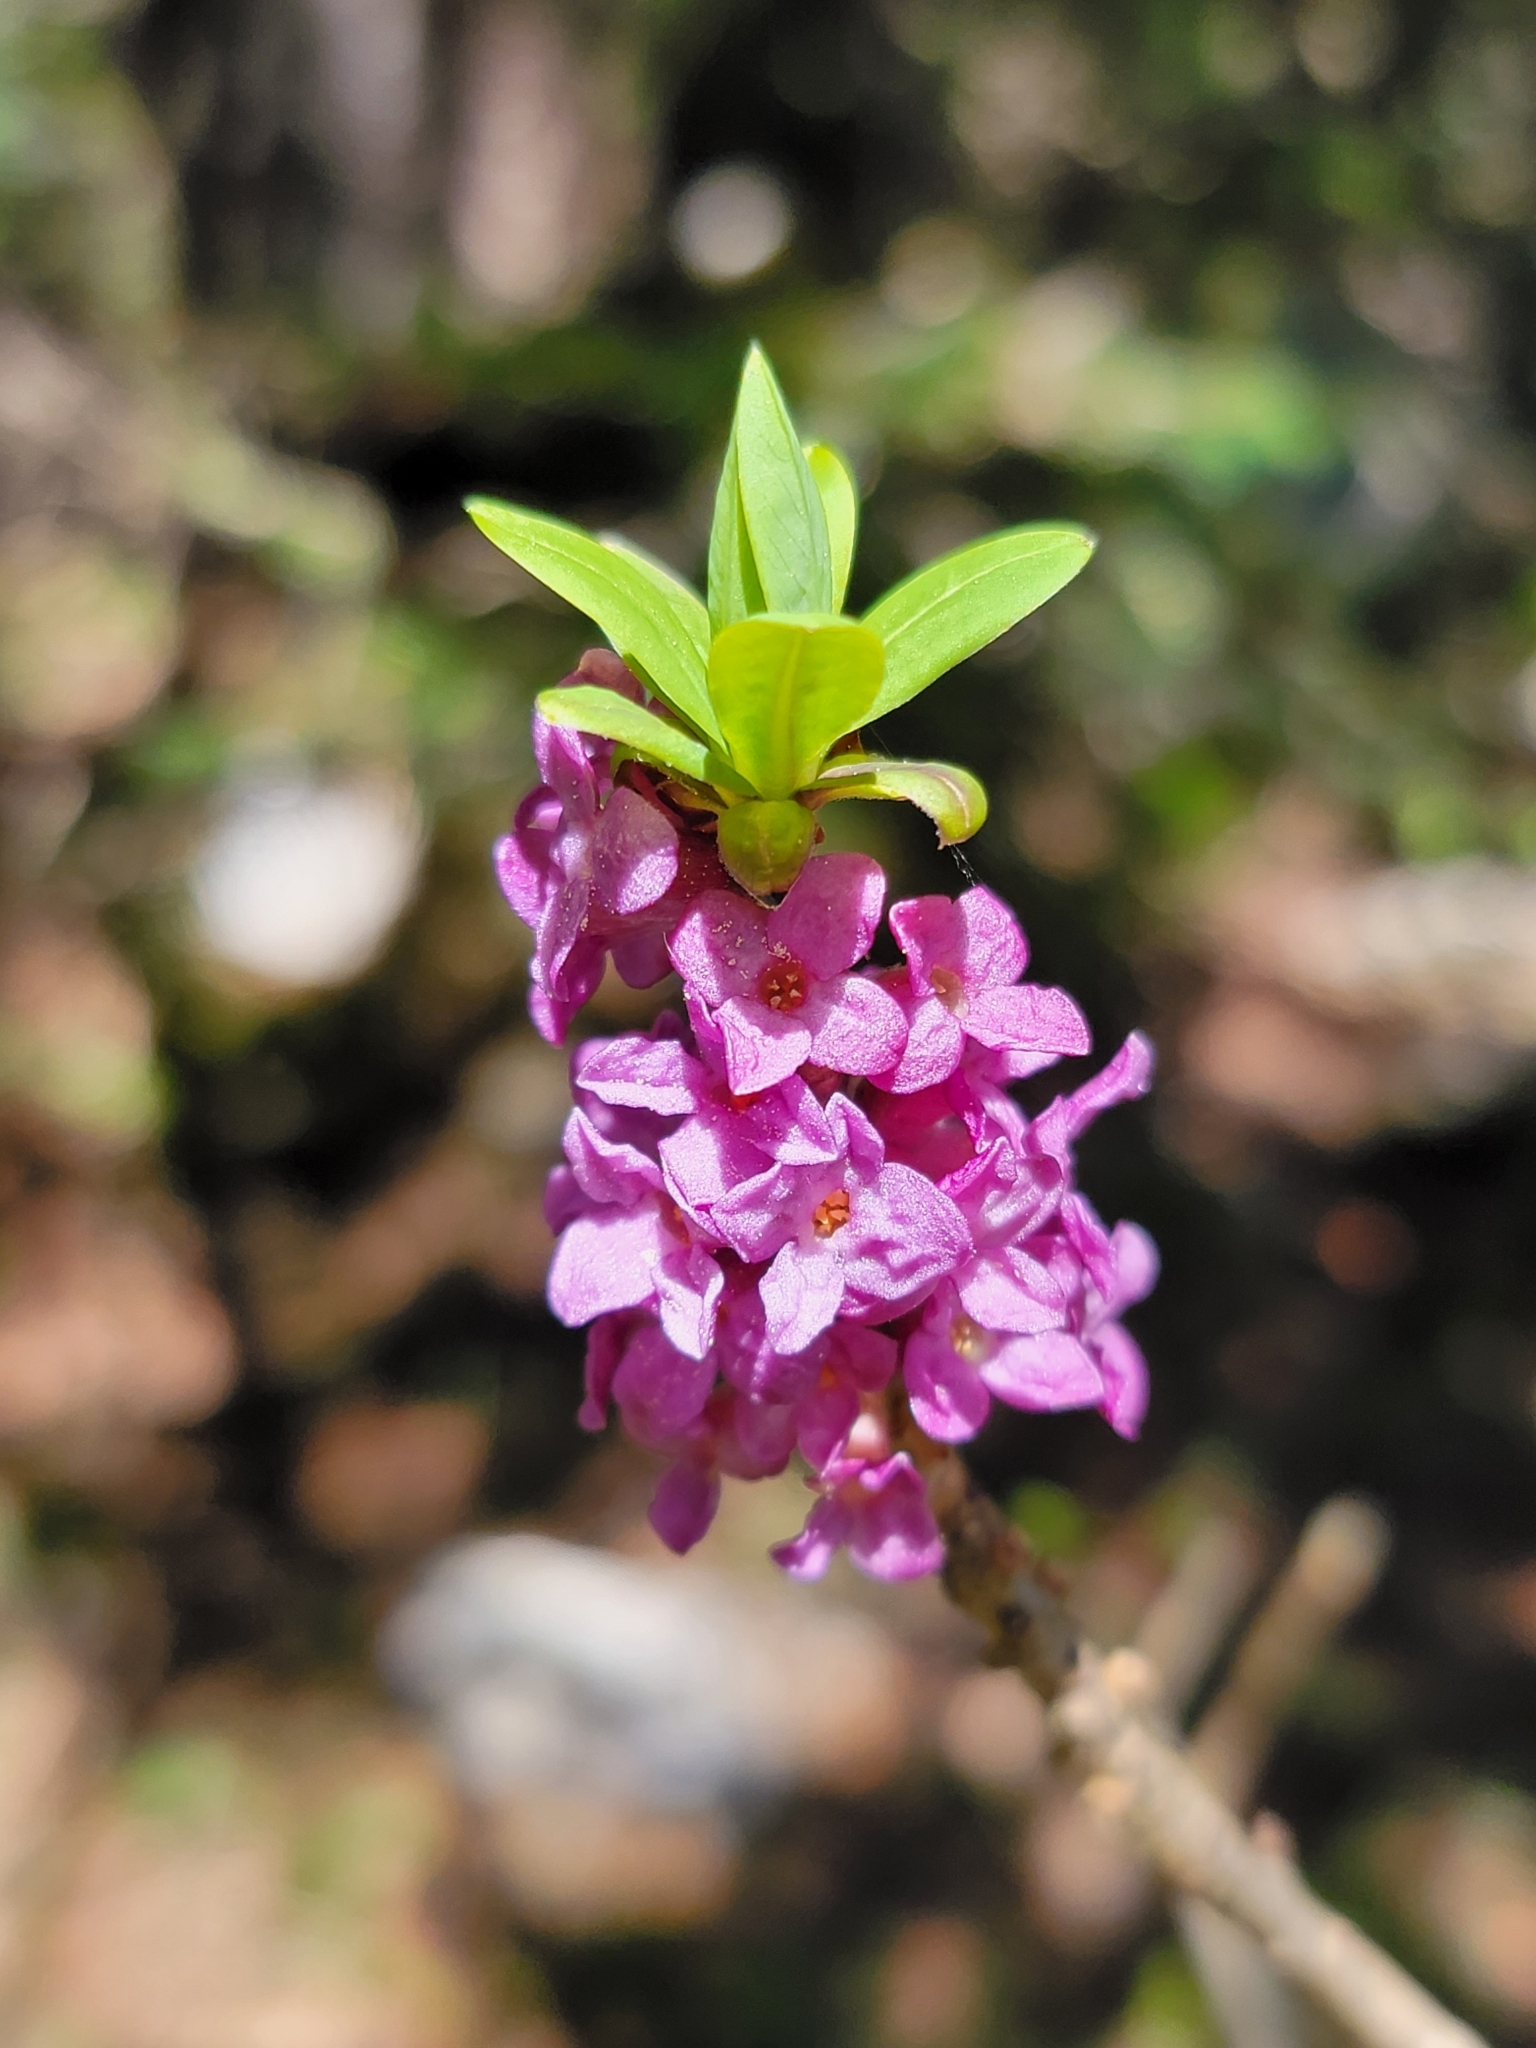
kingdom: Plantae
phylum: Tracheophyta
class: Magnoliopsida
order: Malvales
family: Thymelaeaceae
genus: Daphne
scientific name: Daphne mezereum
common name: Mezereon
